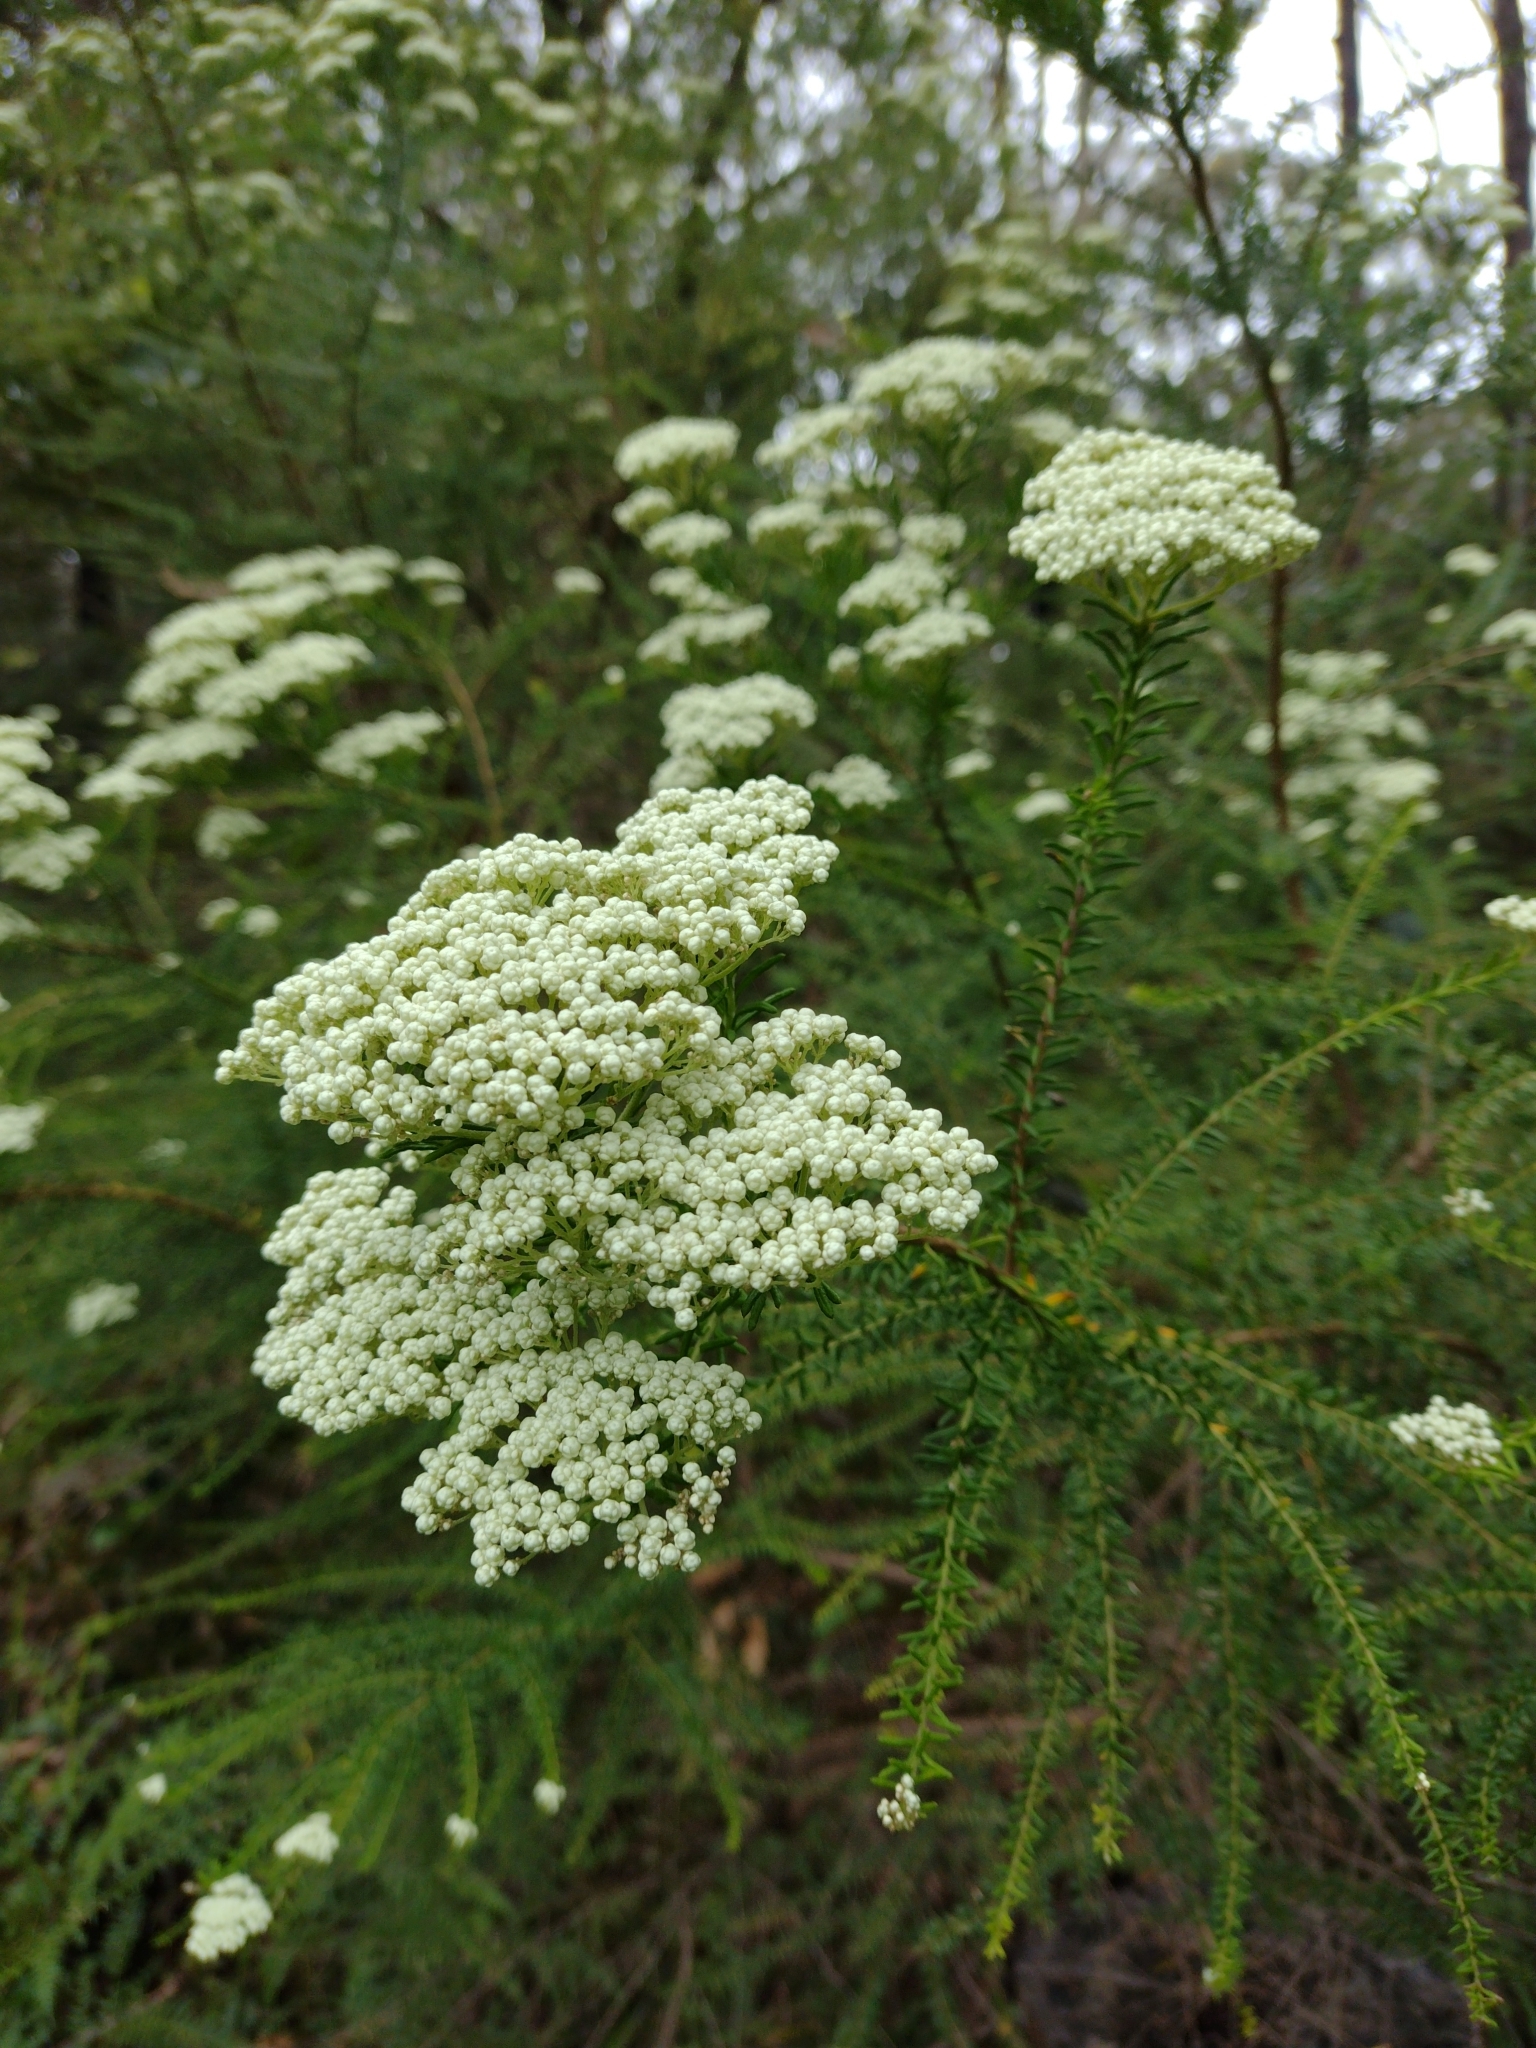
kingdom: Plantae
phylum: Tracheophyta
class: Magnoliopsida
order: Asterales
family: Asteraceae
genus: Ozothamnus
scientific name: Ozothamnus diosmifolius
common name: White-dogwood
